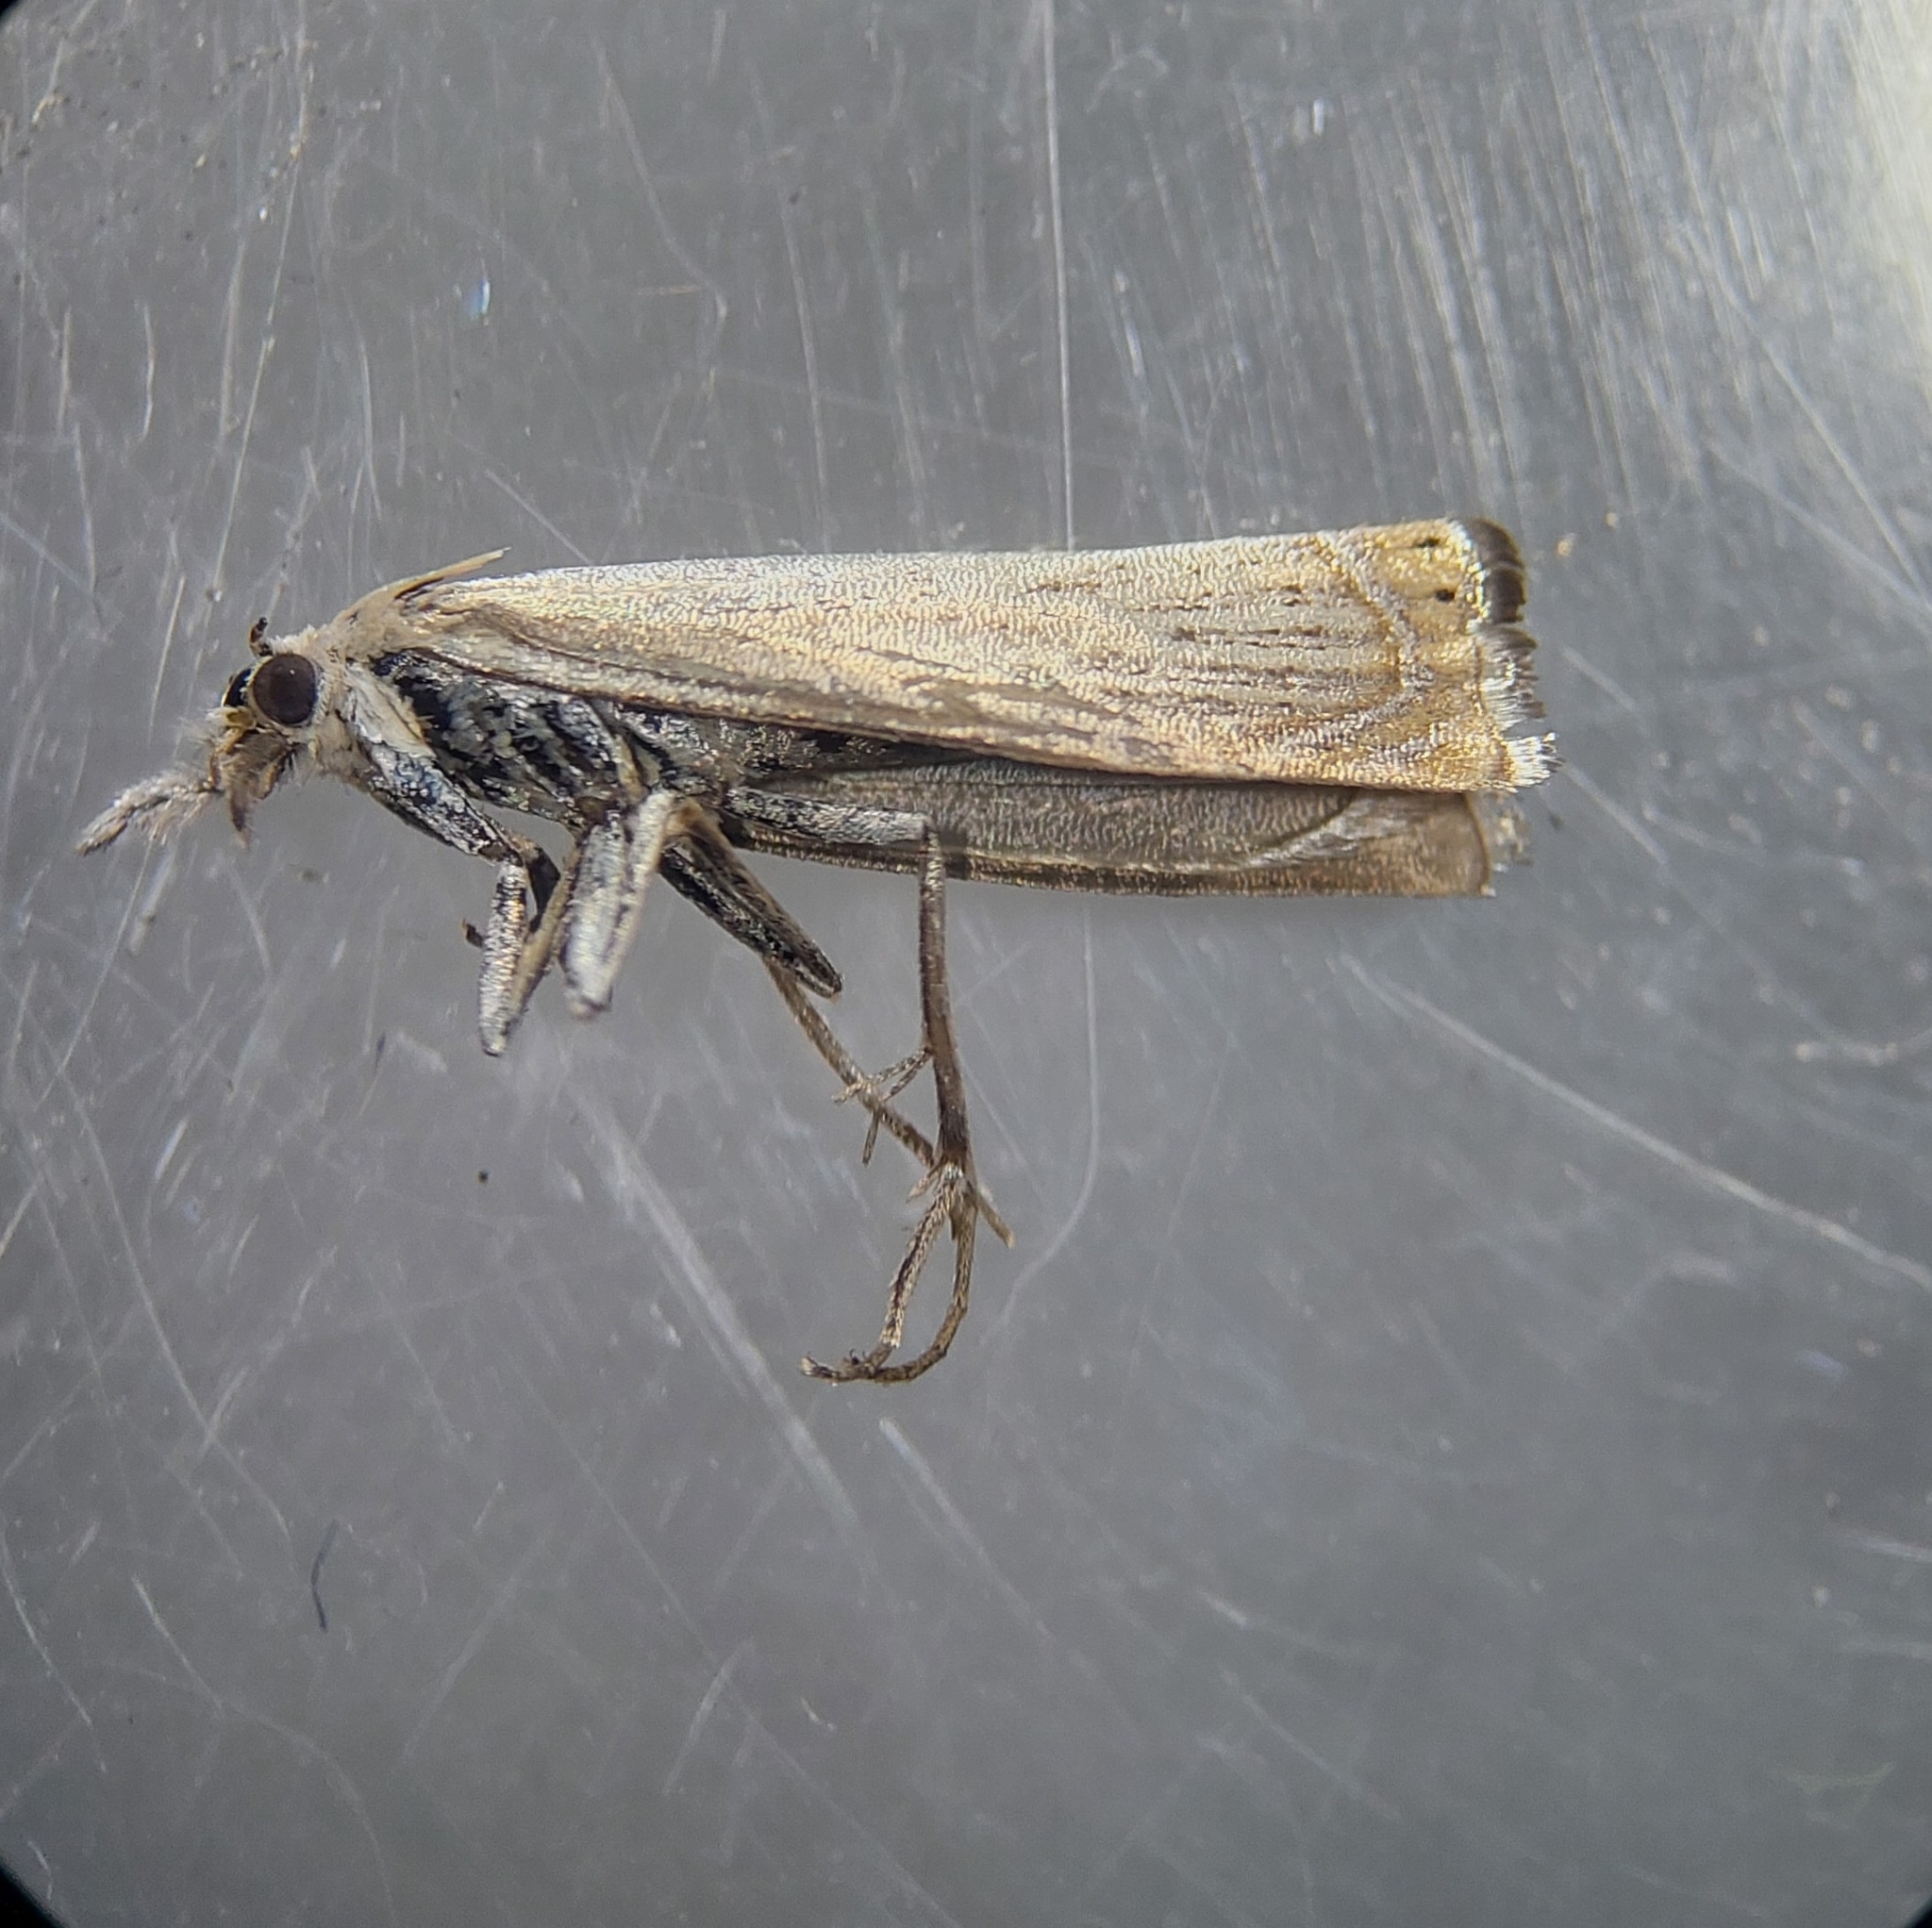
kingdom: Animalia
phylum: Arthropoda
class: Insecta
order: Lepidoptera
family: Crambidae
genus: Chrysoteuchia
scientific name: Chrysoteuchia culmella
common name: Garden grass-veneer
